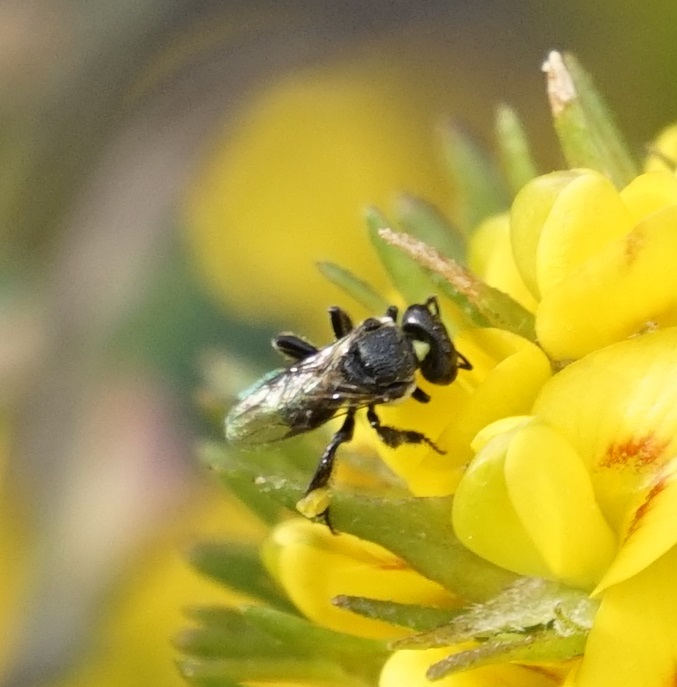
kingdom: Animalia
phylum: Arthropoda
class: Insecta
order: Hymenoptera
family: Apidae
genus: Tetragonula
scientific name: Tetragonula carbonaria
